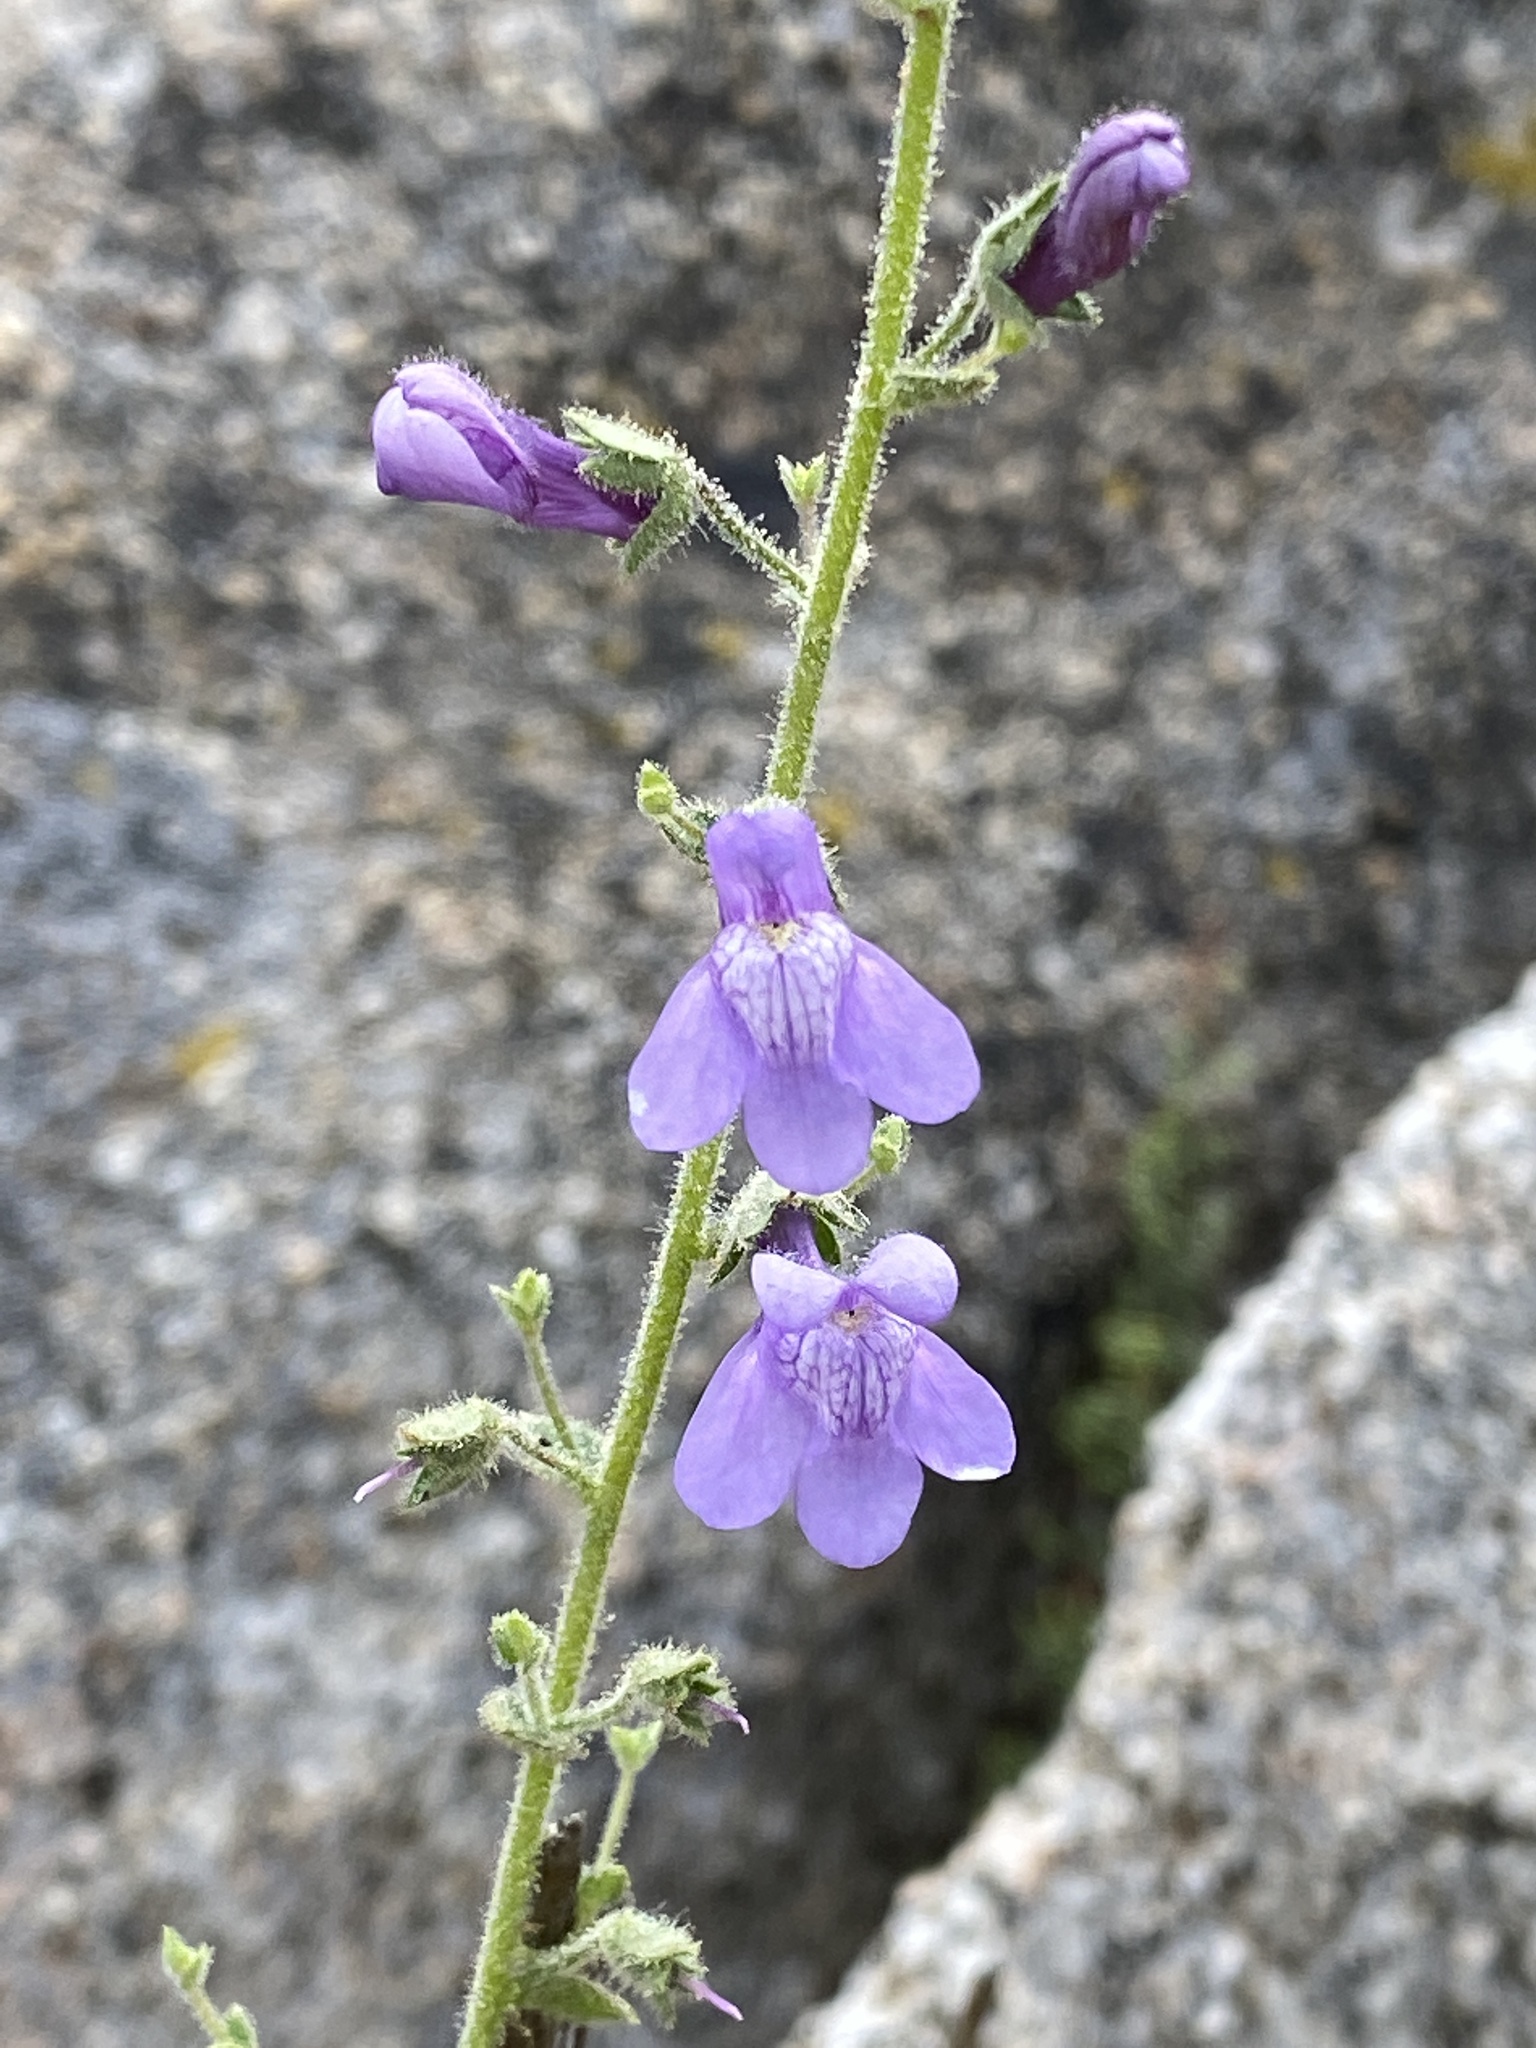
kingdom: Plantae
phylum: Tracheophyta
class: Magnoliopsida
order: Lamiales
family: Plantaginaceae
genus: Sairocarpus
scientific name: Sairocarpus nuttallianus
